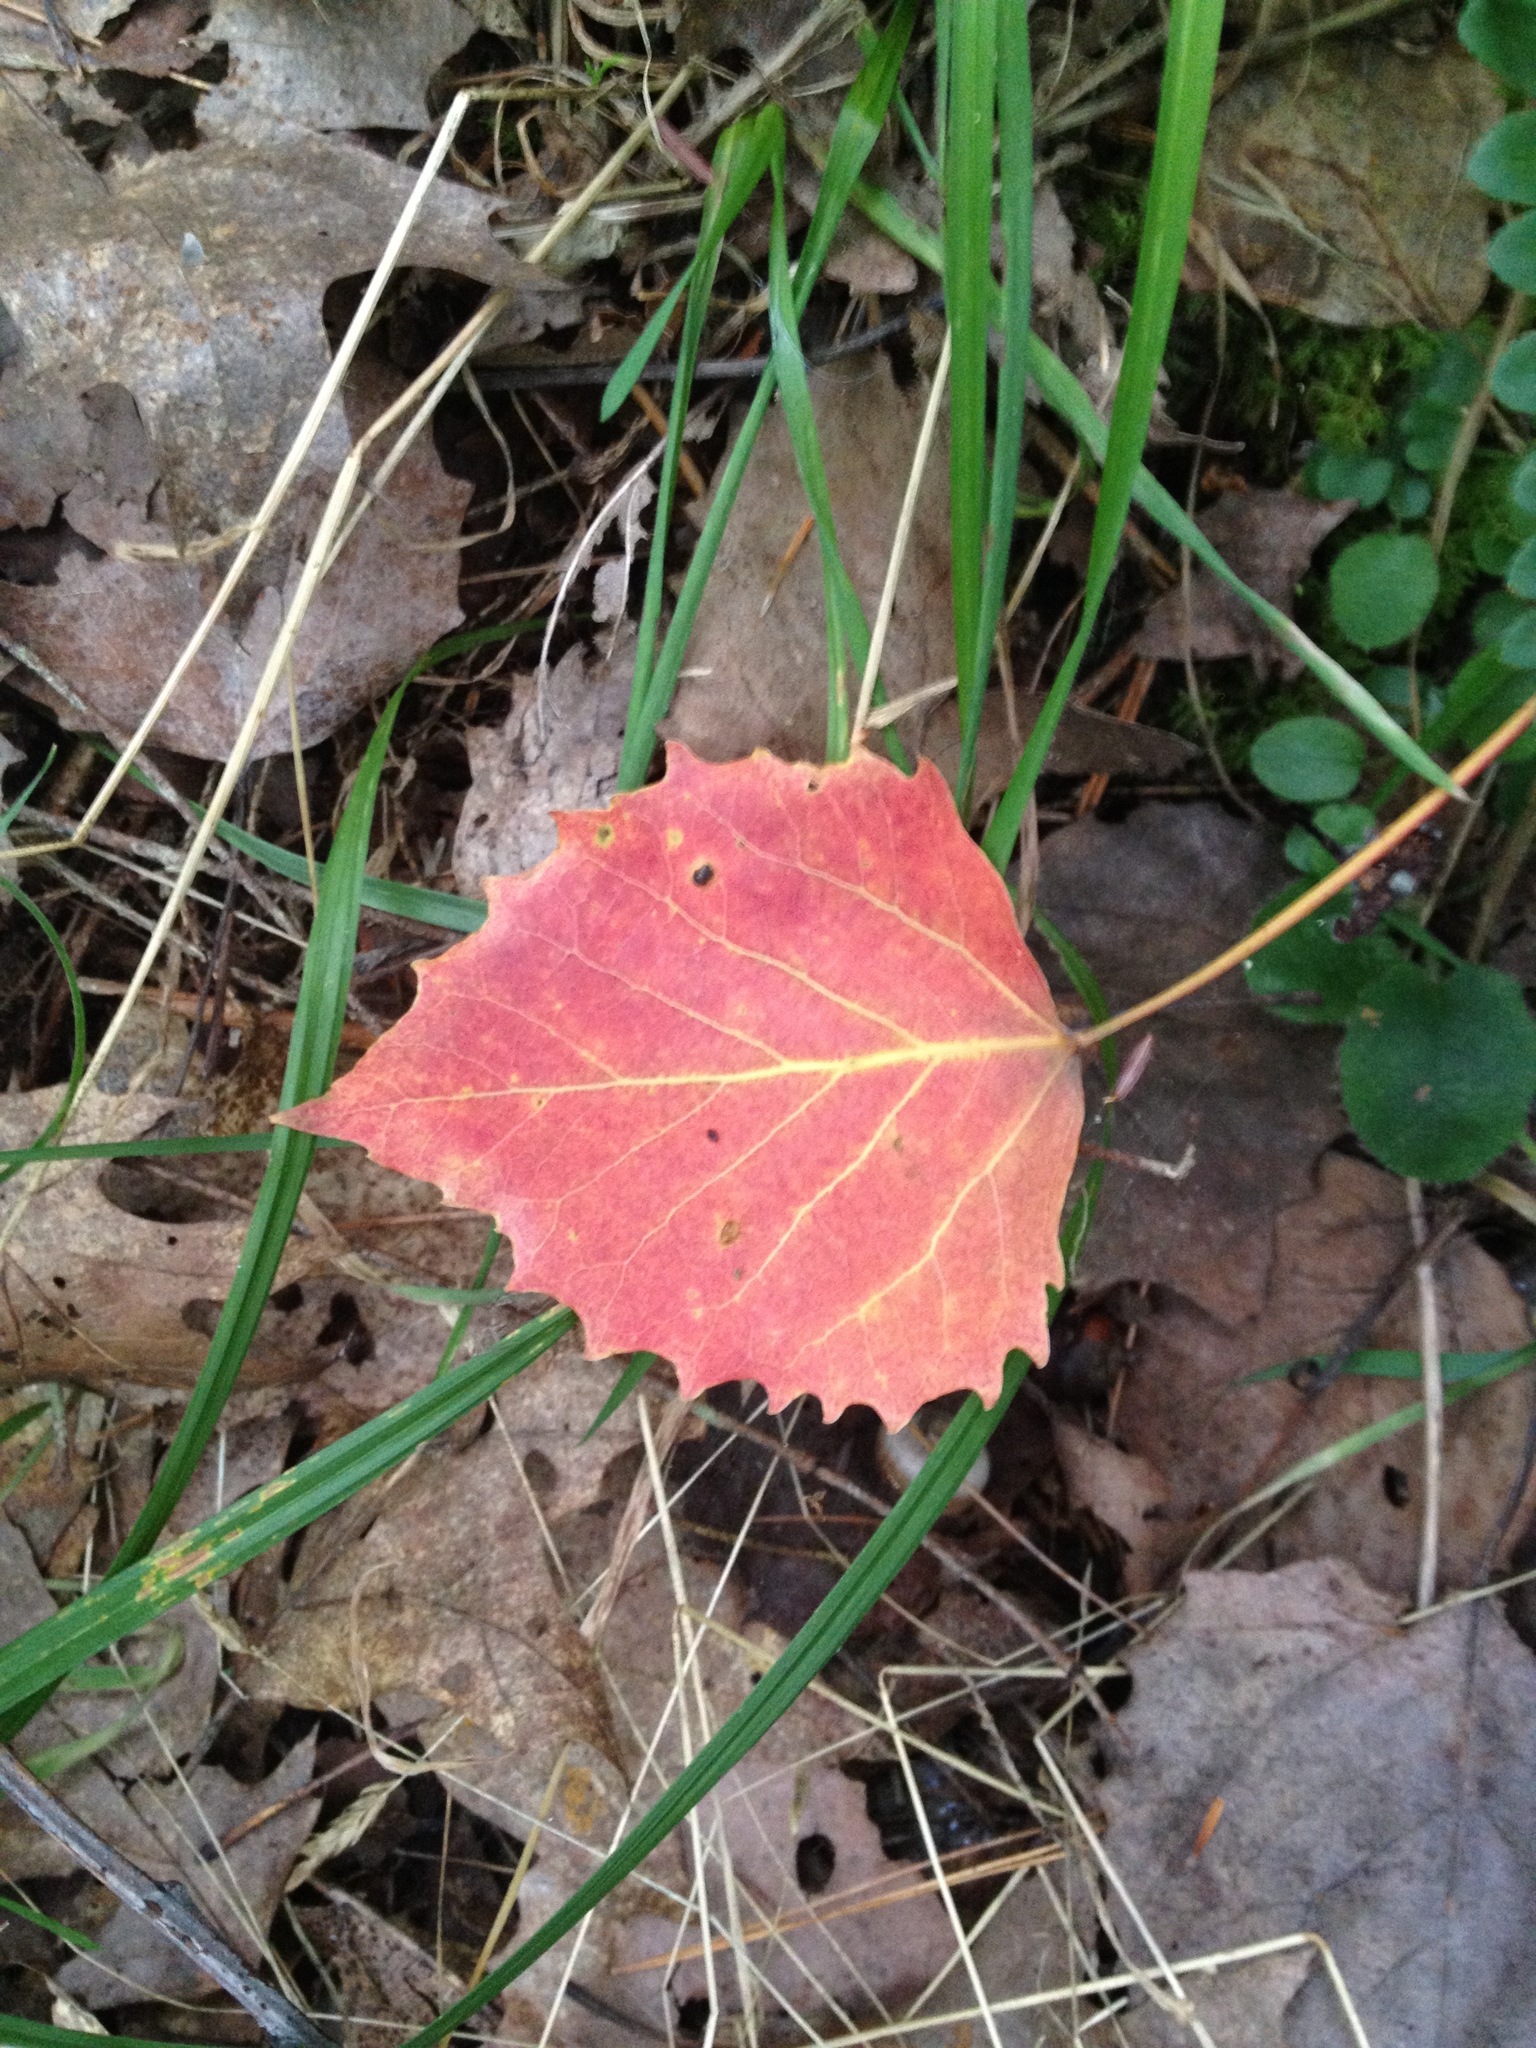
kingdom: Plantae
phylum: Tracheophyta
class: Magnoliopsida
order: Malpighiales
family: Salicaceae
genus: Populus
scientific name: Populus grandidentata
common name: Bigtooth aspen
